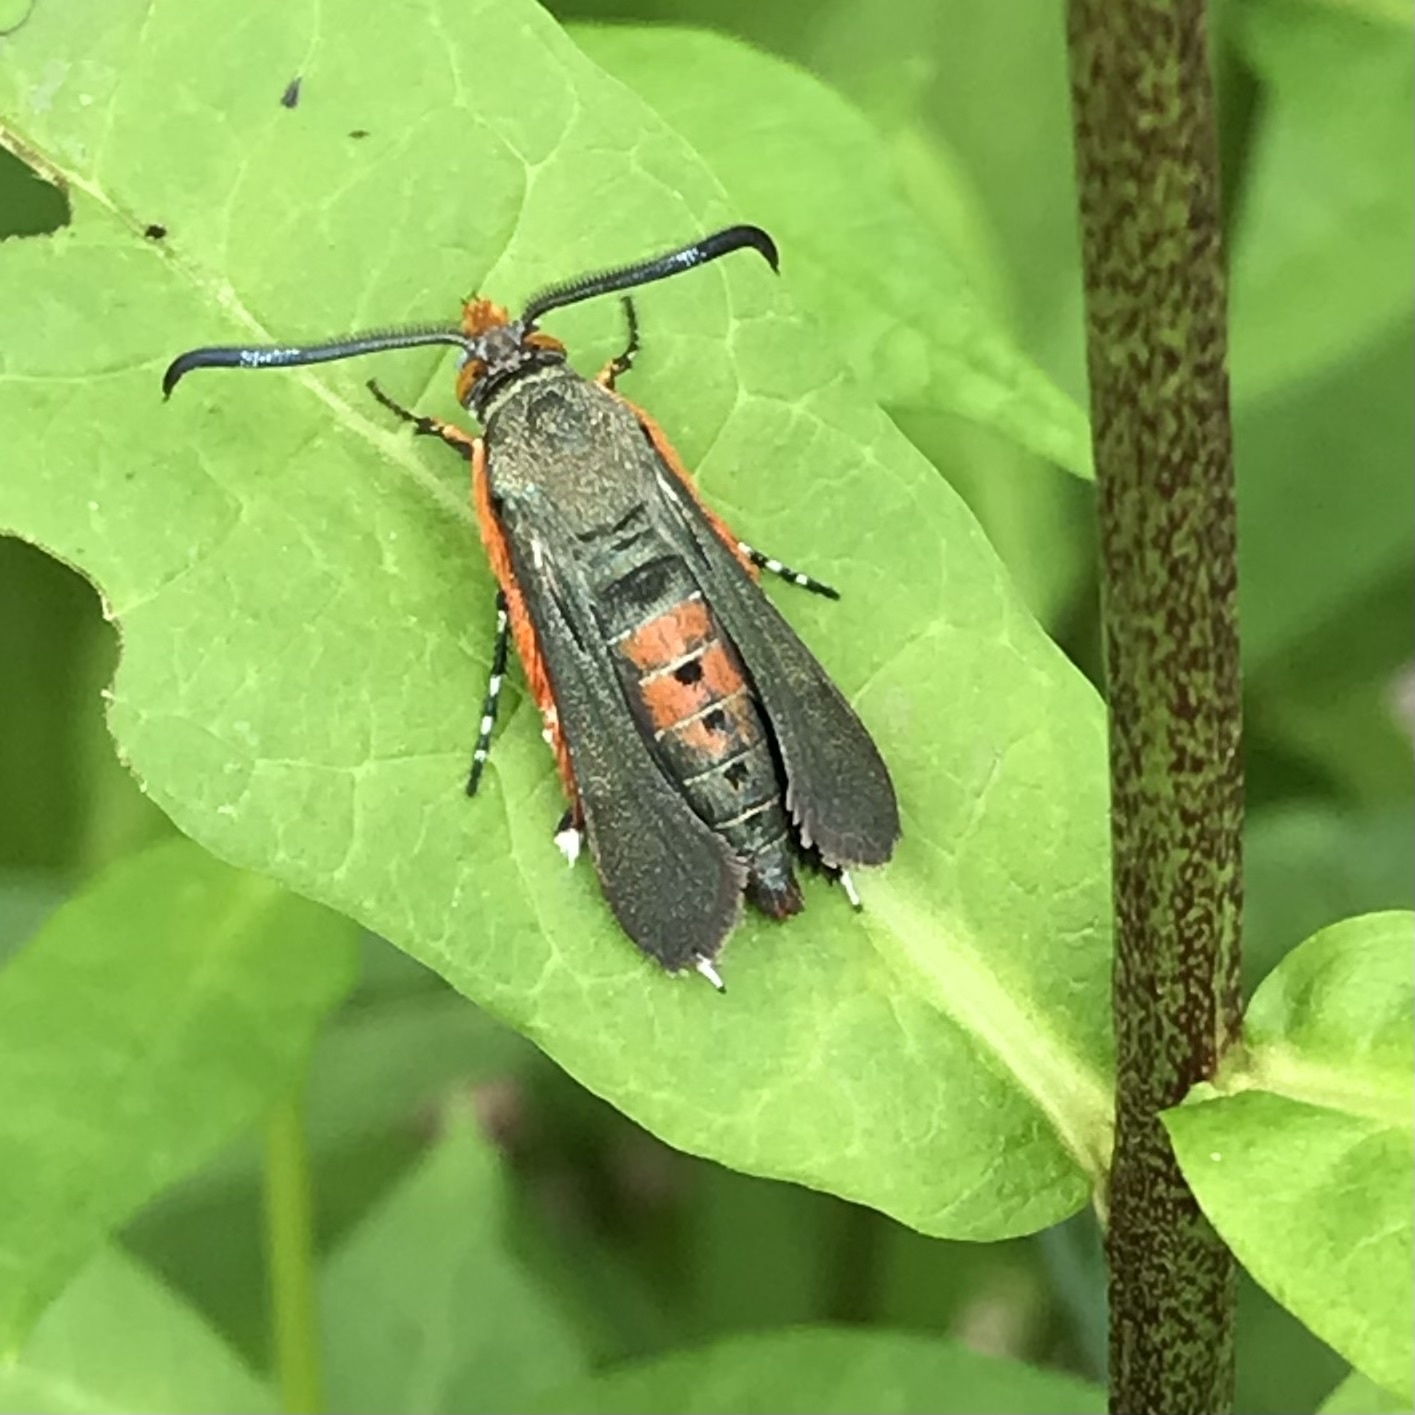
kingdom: Animalia
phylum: Arthropoda
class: Insecta
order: Lepidoptera
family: Sesiidae
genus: Eichlinia
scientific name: Eichlinia cucurbitae
